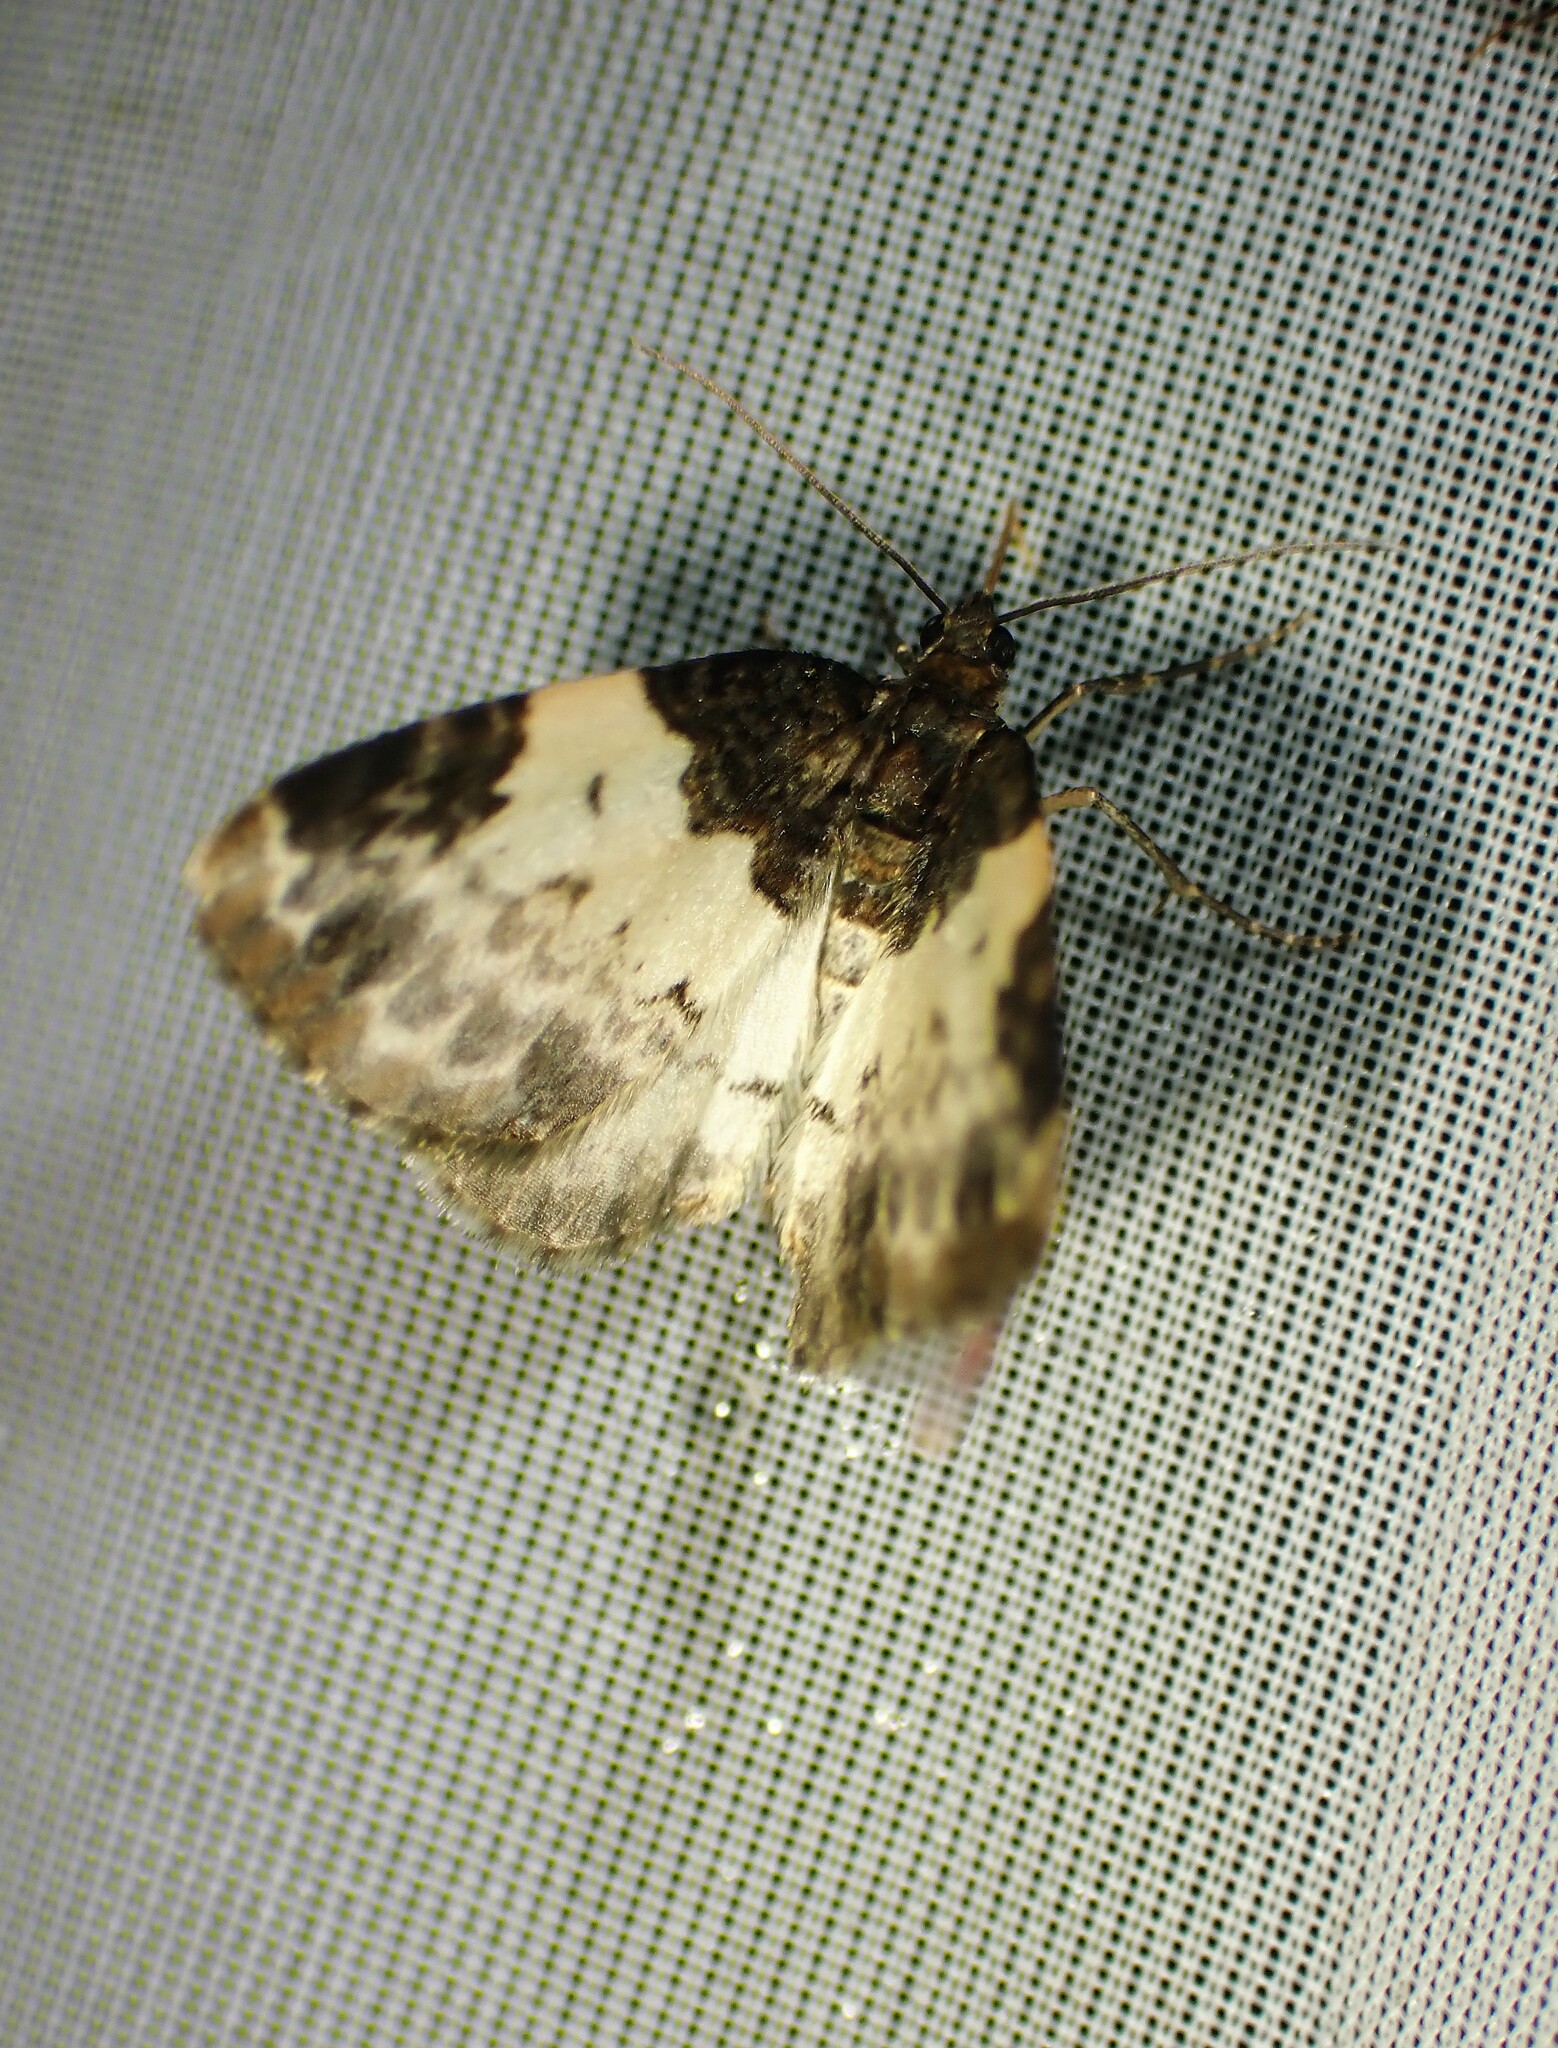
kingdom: Animalia
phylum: Arthropoda
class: Insecta
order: Lepidoptera
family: Geometridae
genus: Mesoleuca
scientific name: Mesoleuca ruficillata
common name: White-ribboned carpet moth
